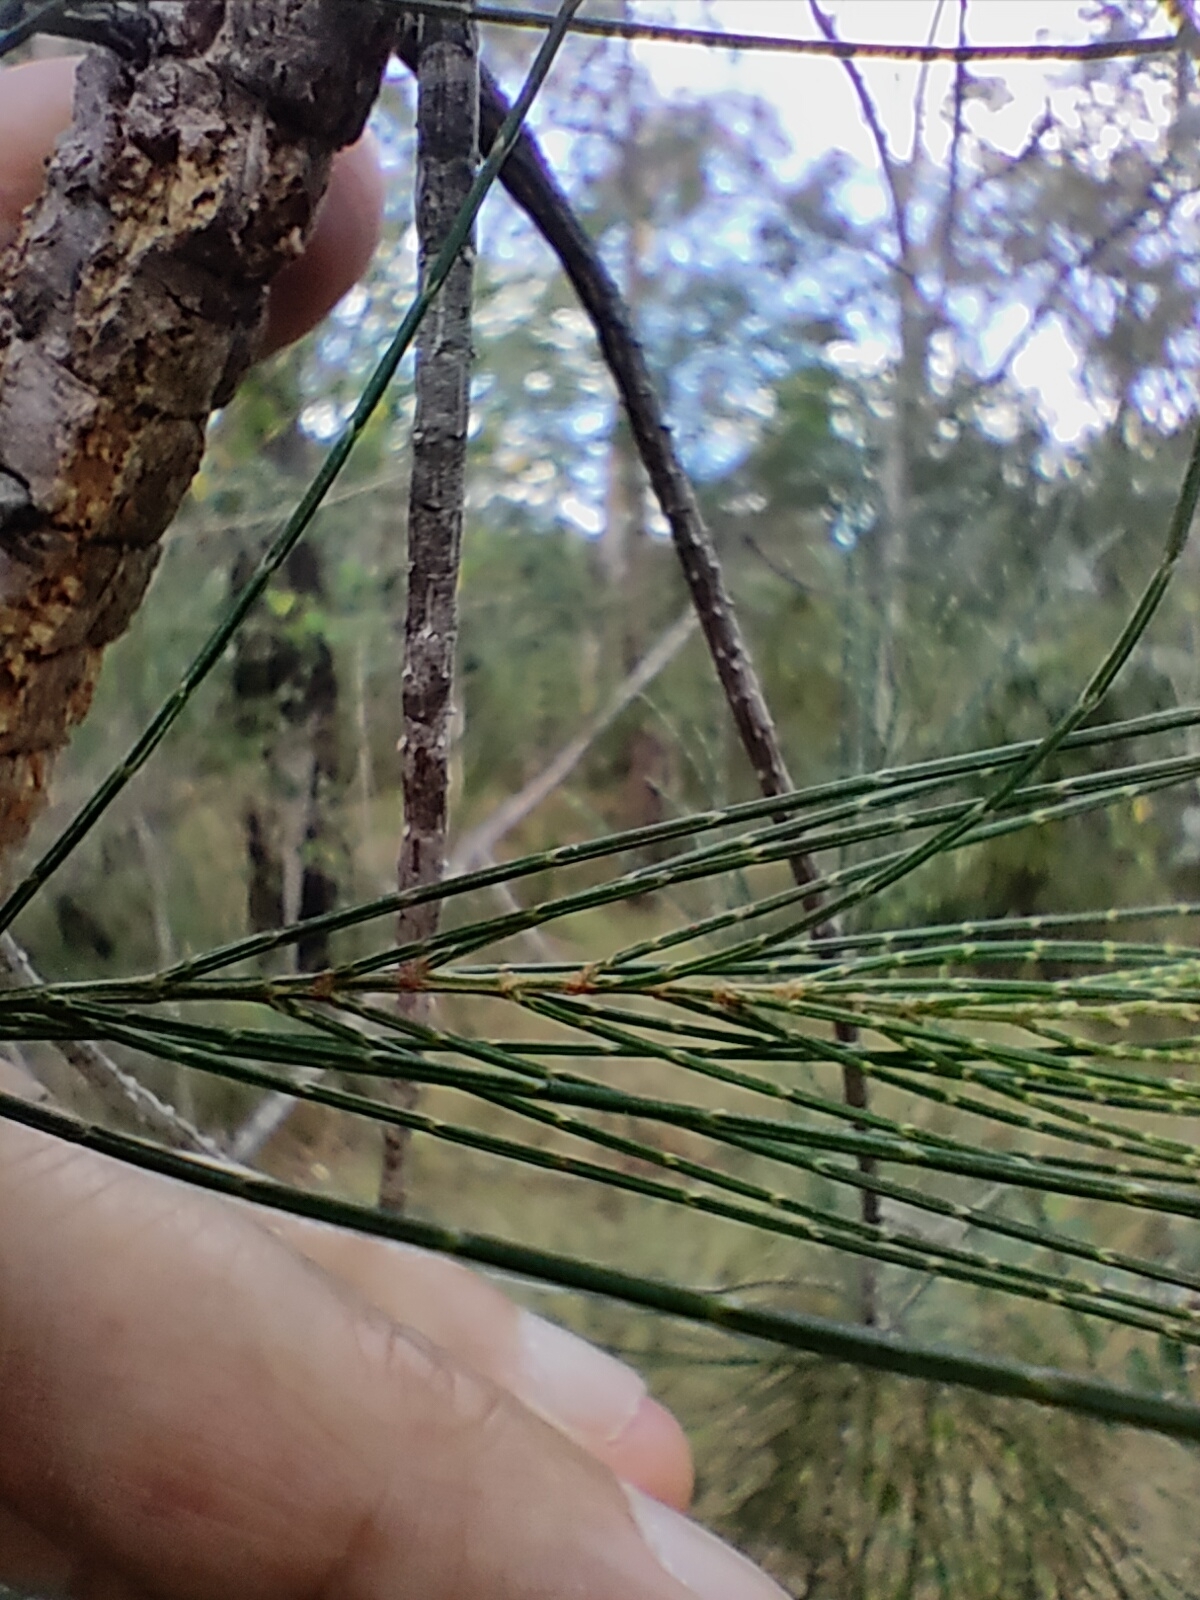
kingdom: Plantae
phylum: Tracheophyta
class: Magnoliopsida
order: Fagales
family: Casuarinaceae
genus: Allocasuarina
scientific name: Allocasuarina torulosa
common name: Forest-oak
